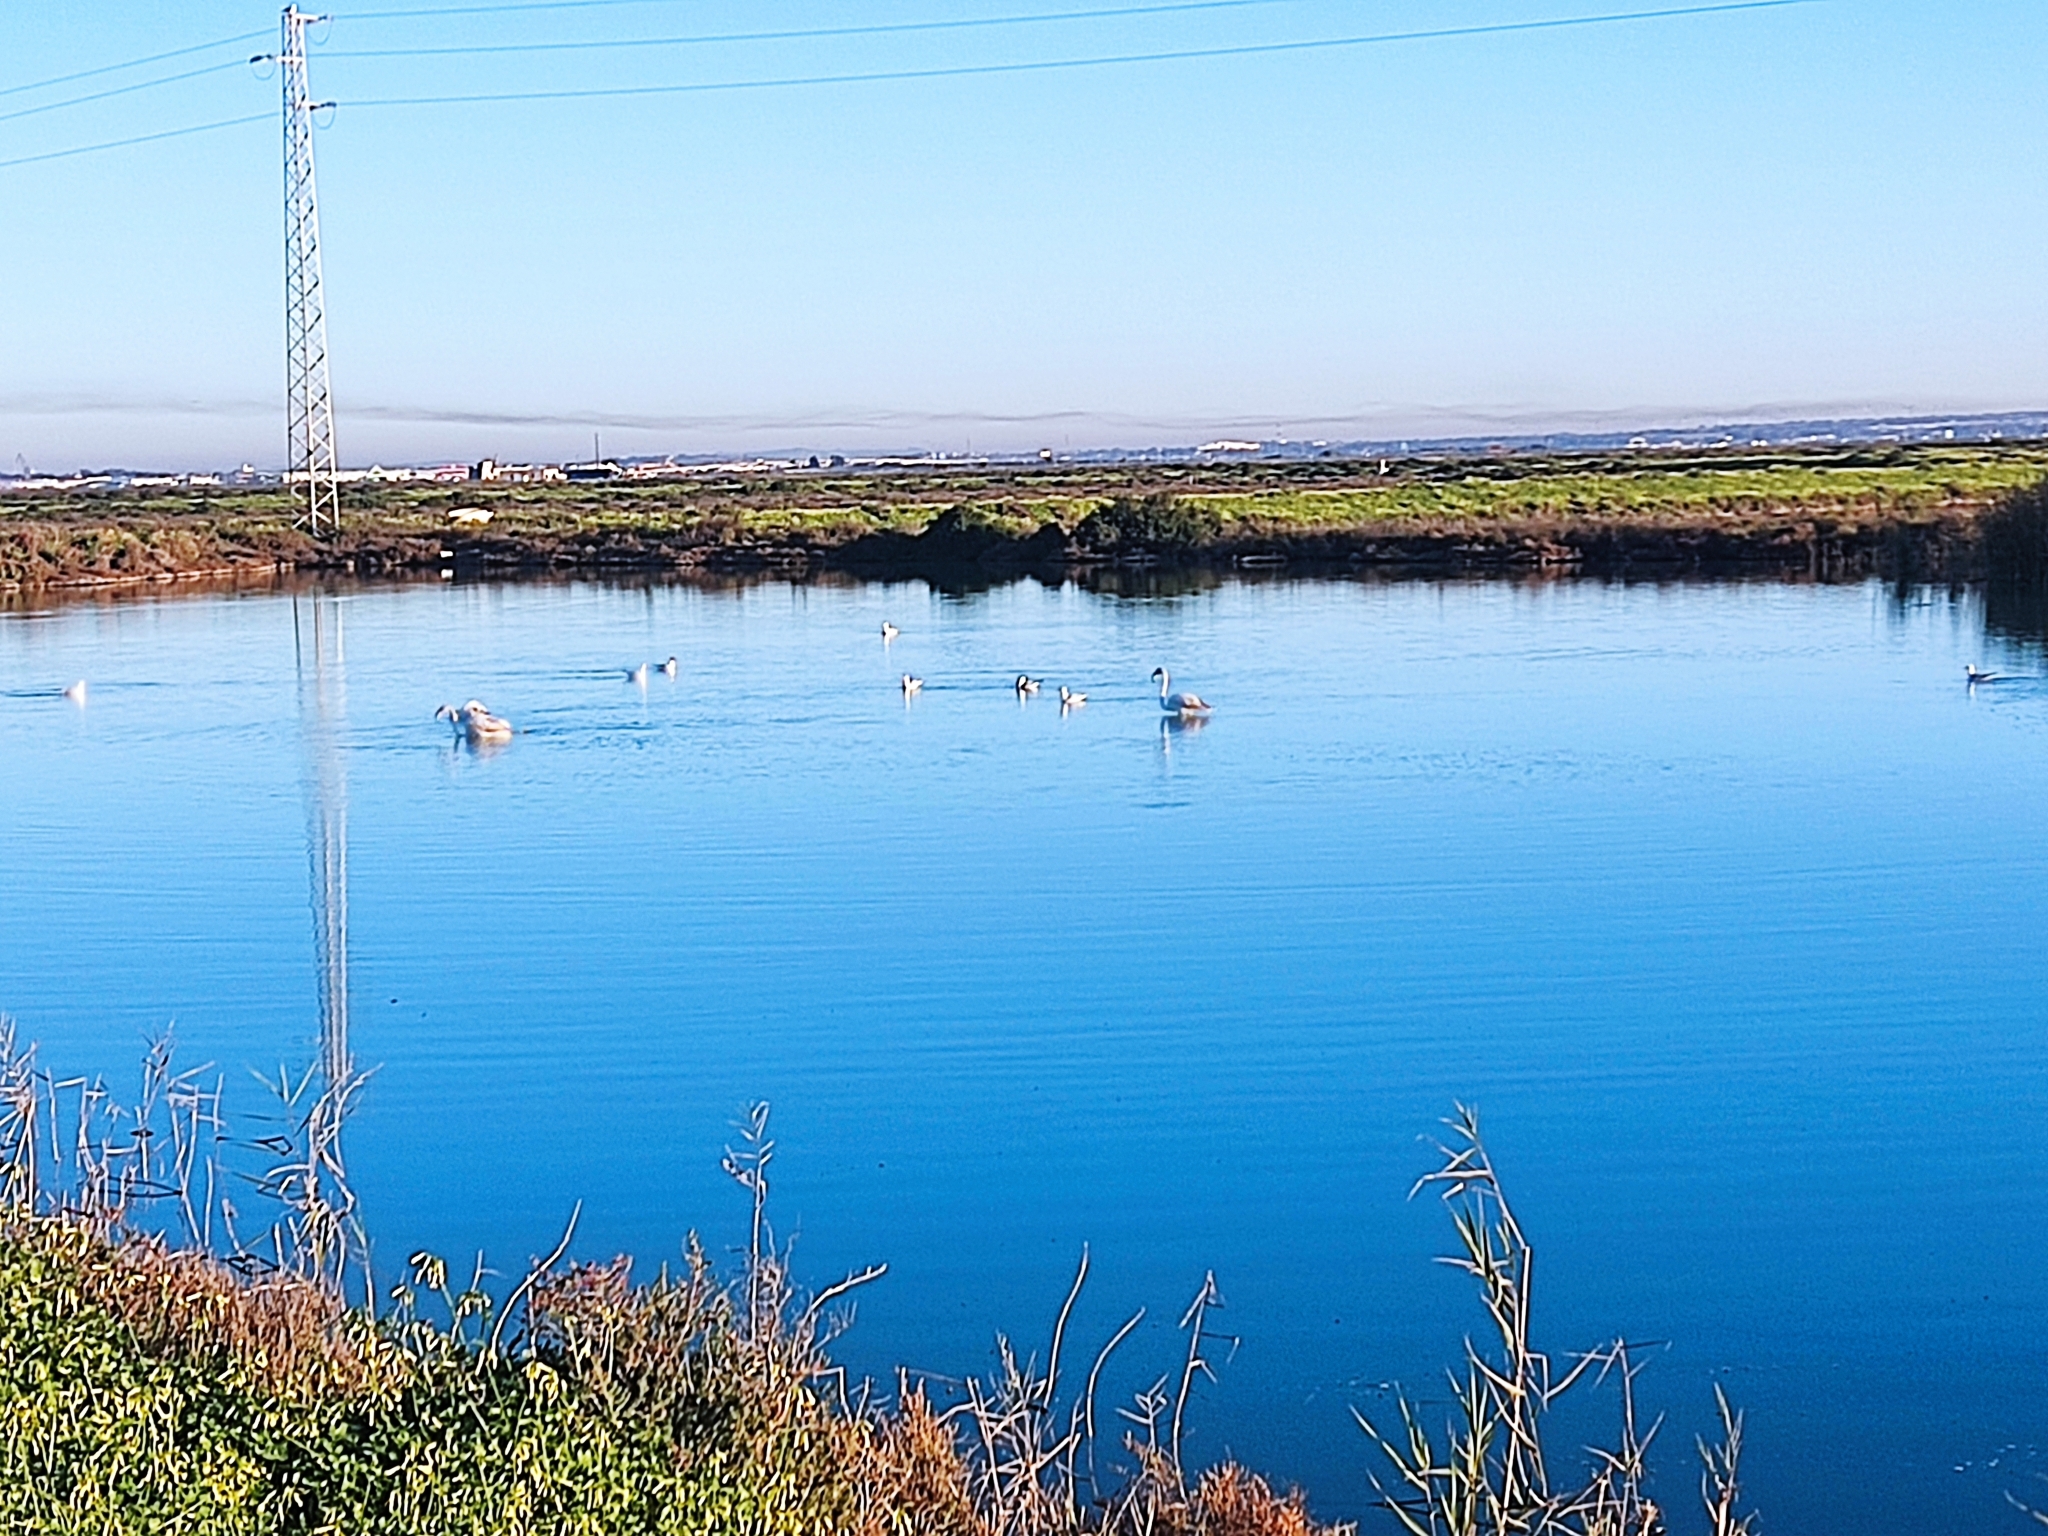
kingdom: Animalia
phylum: Chordata
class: Aves
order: Phoenicopteriformes
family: Phoenicopteridae
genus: Phoenicopterus
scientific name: Phoenicopterus roseus
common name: Greater flamingo
